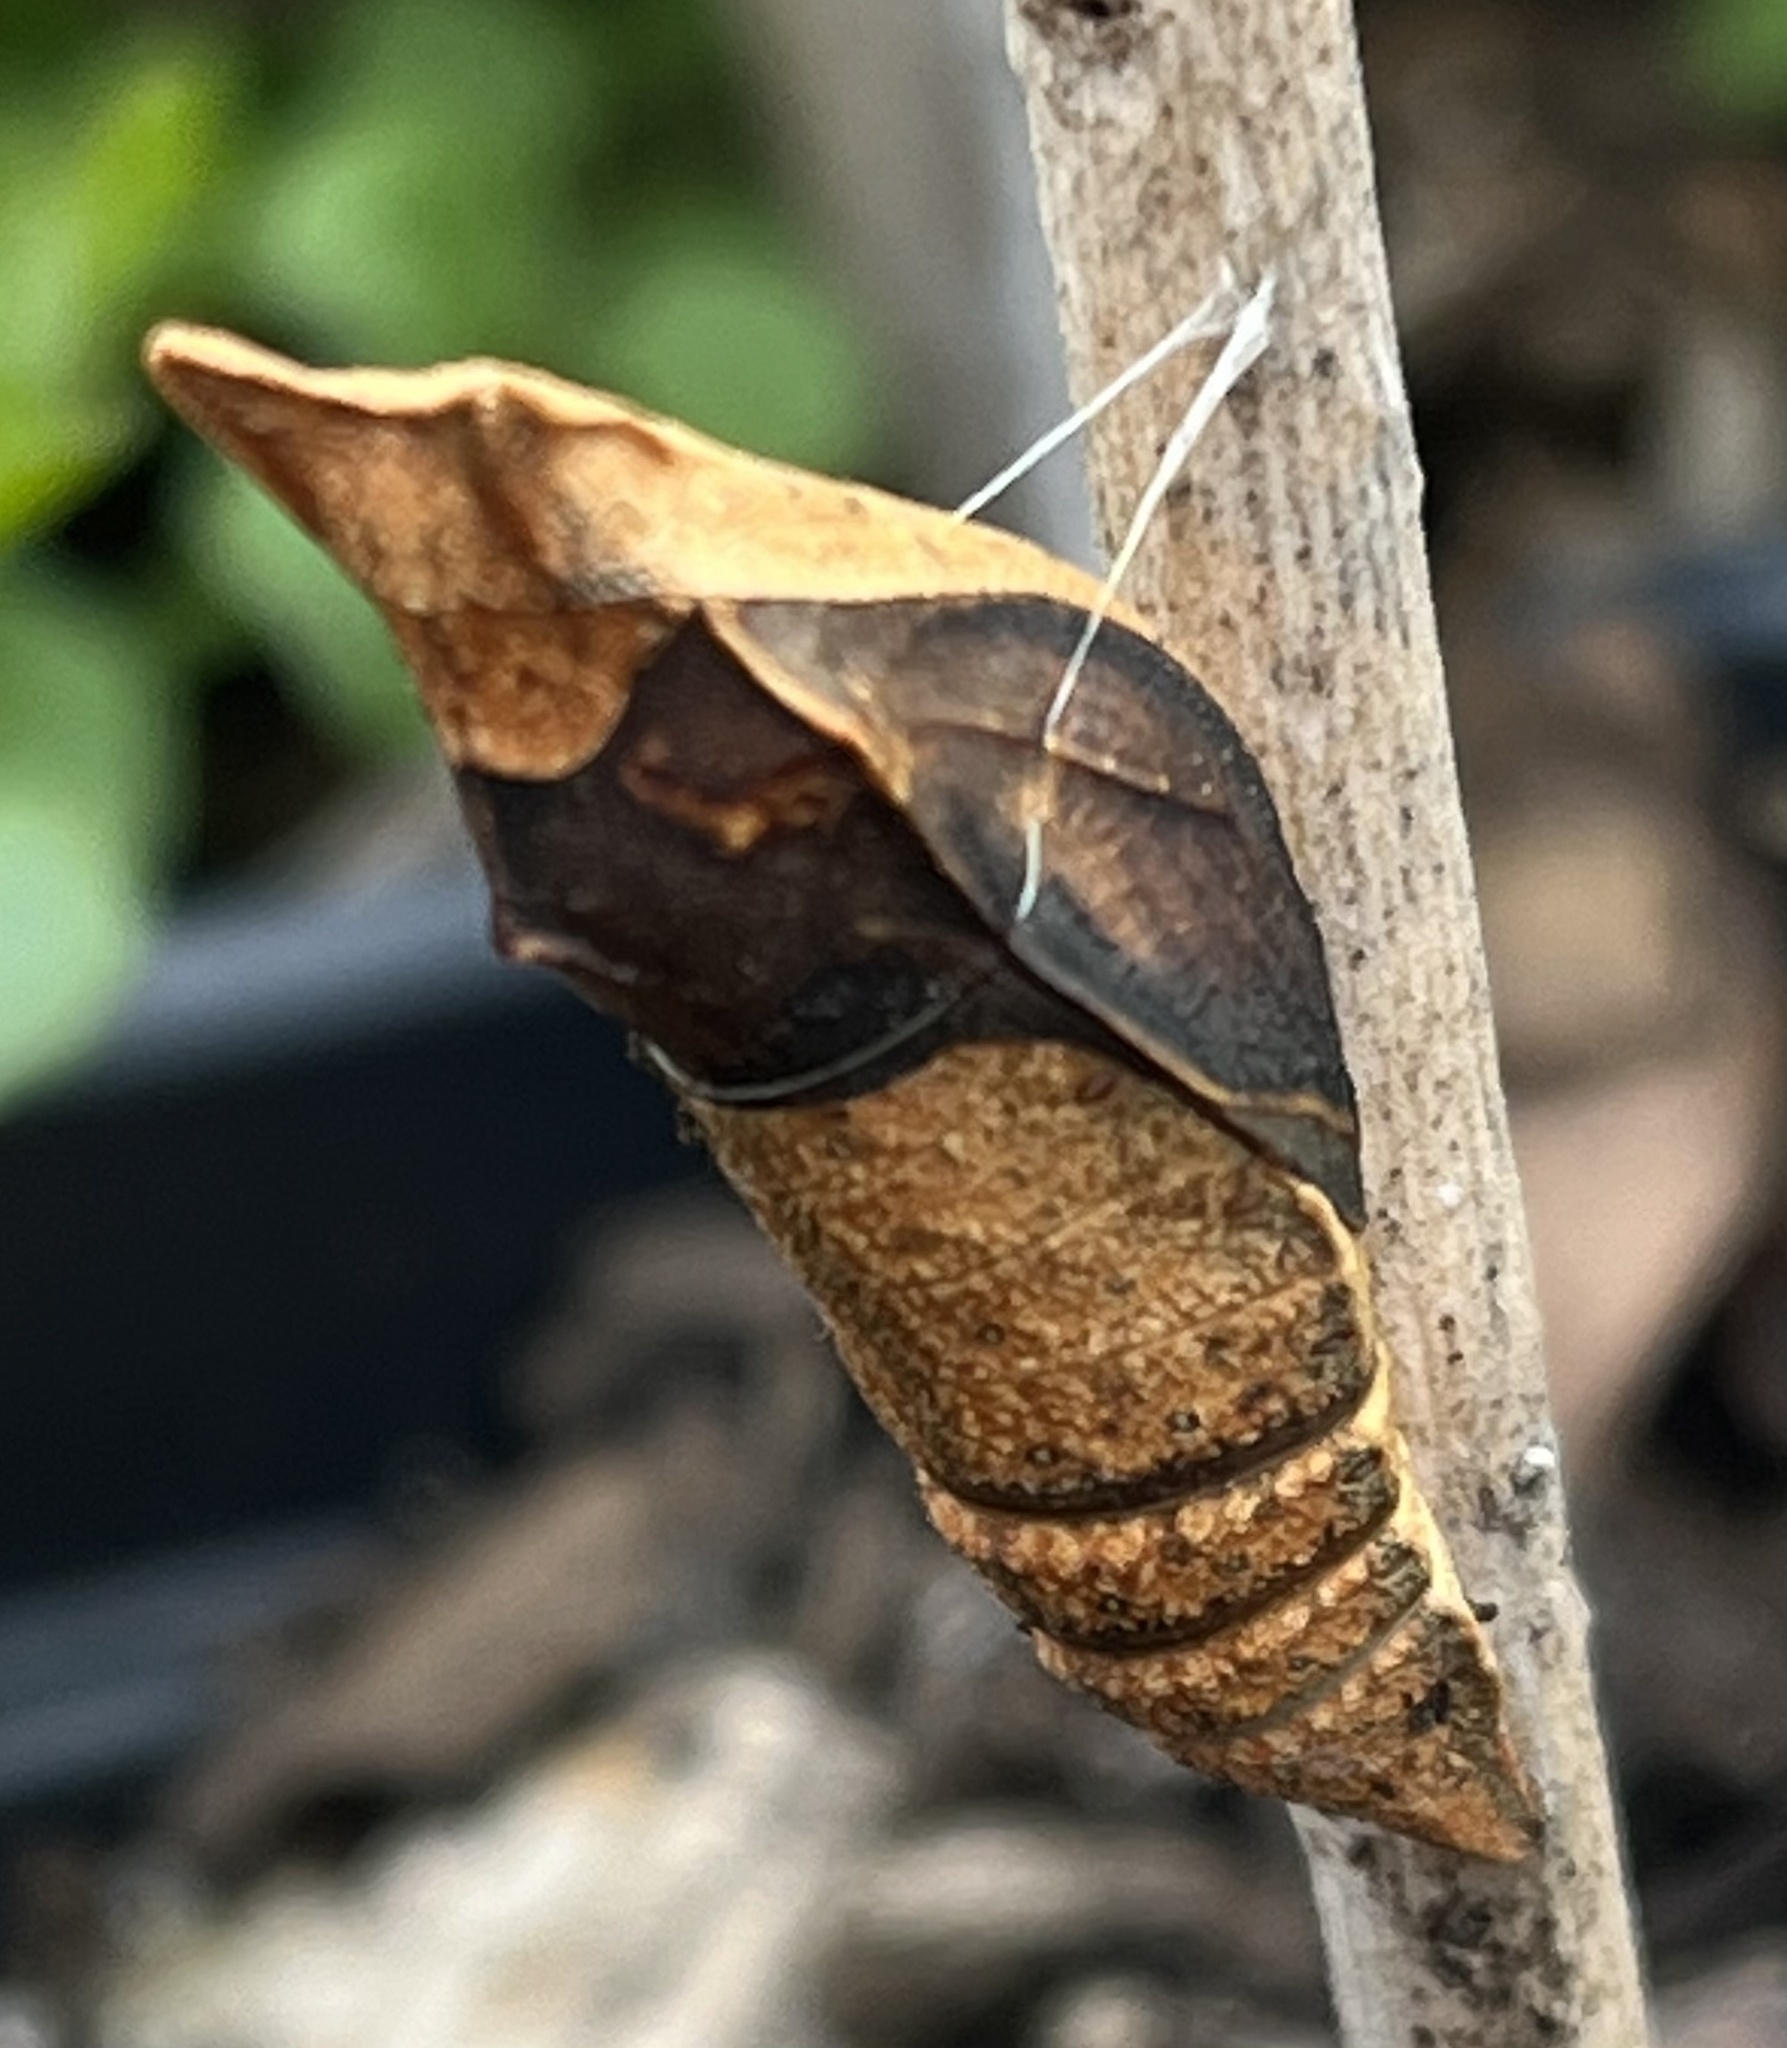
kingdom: Animalia
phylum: Arthropoda
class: Insecta
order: Lepidoptera
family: Papilionidae
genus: Papilio
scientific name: Papilio troilus
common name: Spicebush swallowtail
